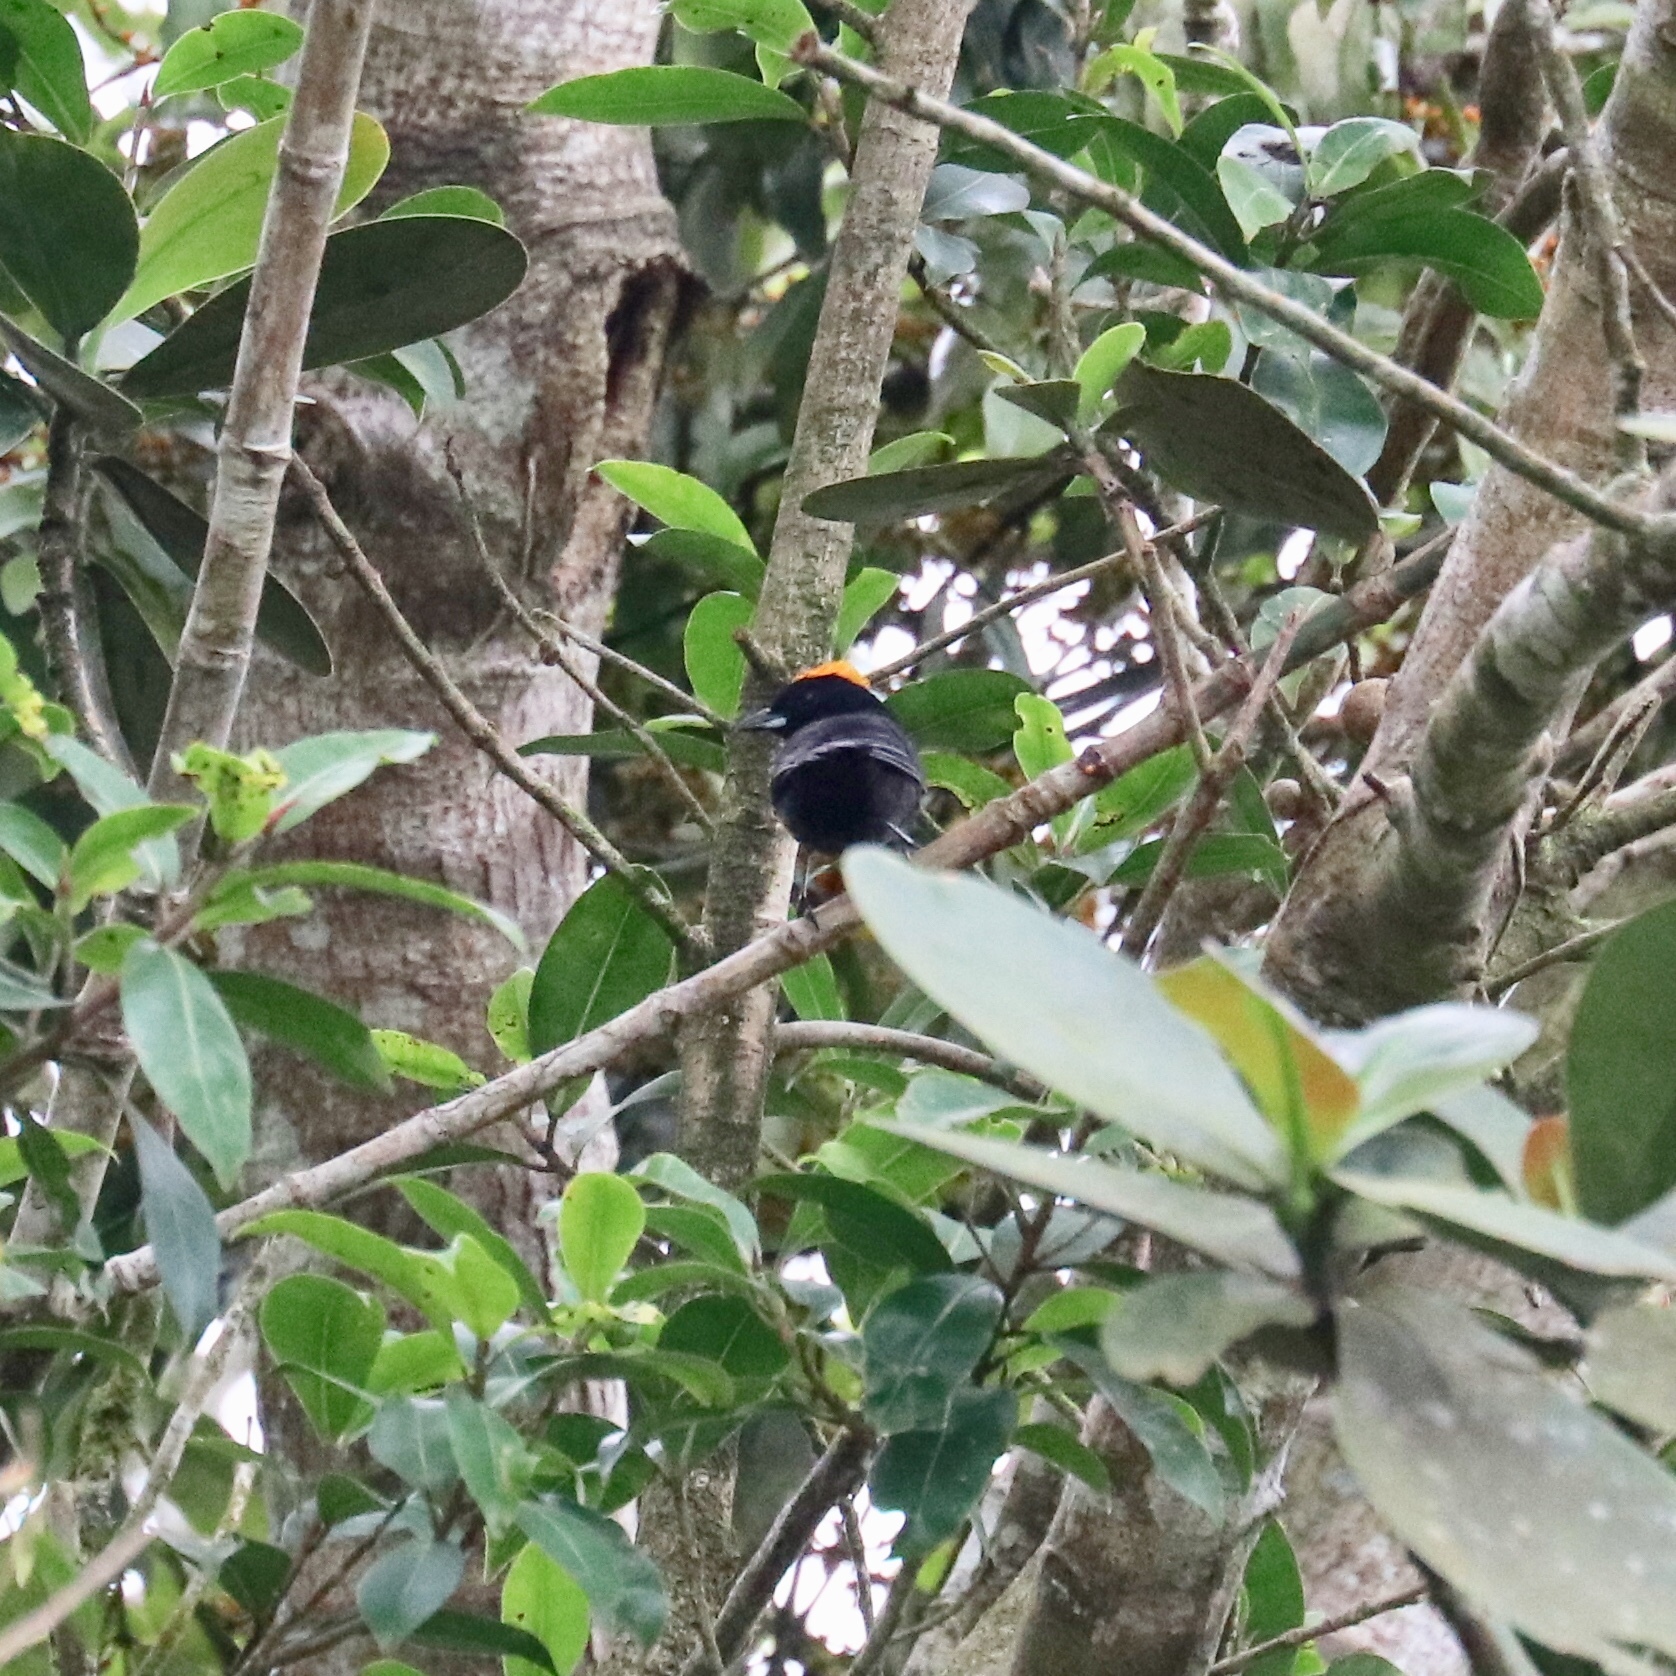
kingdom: Animalia
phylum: Chordata
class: Aves
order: Passeriformes
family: Thraupidae
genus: Tachyphonus
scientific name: Tachyphonus delatrii
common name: Tawny-crested tanager
